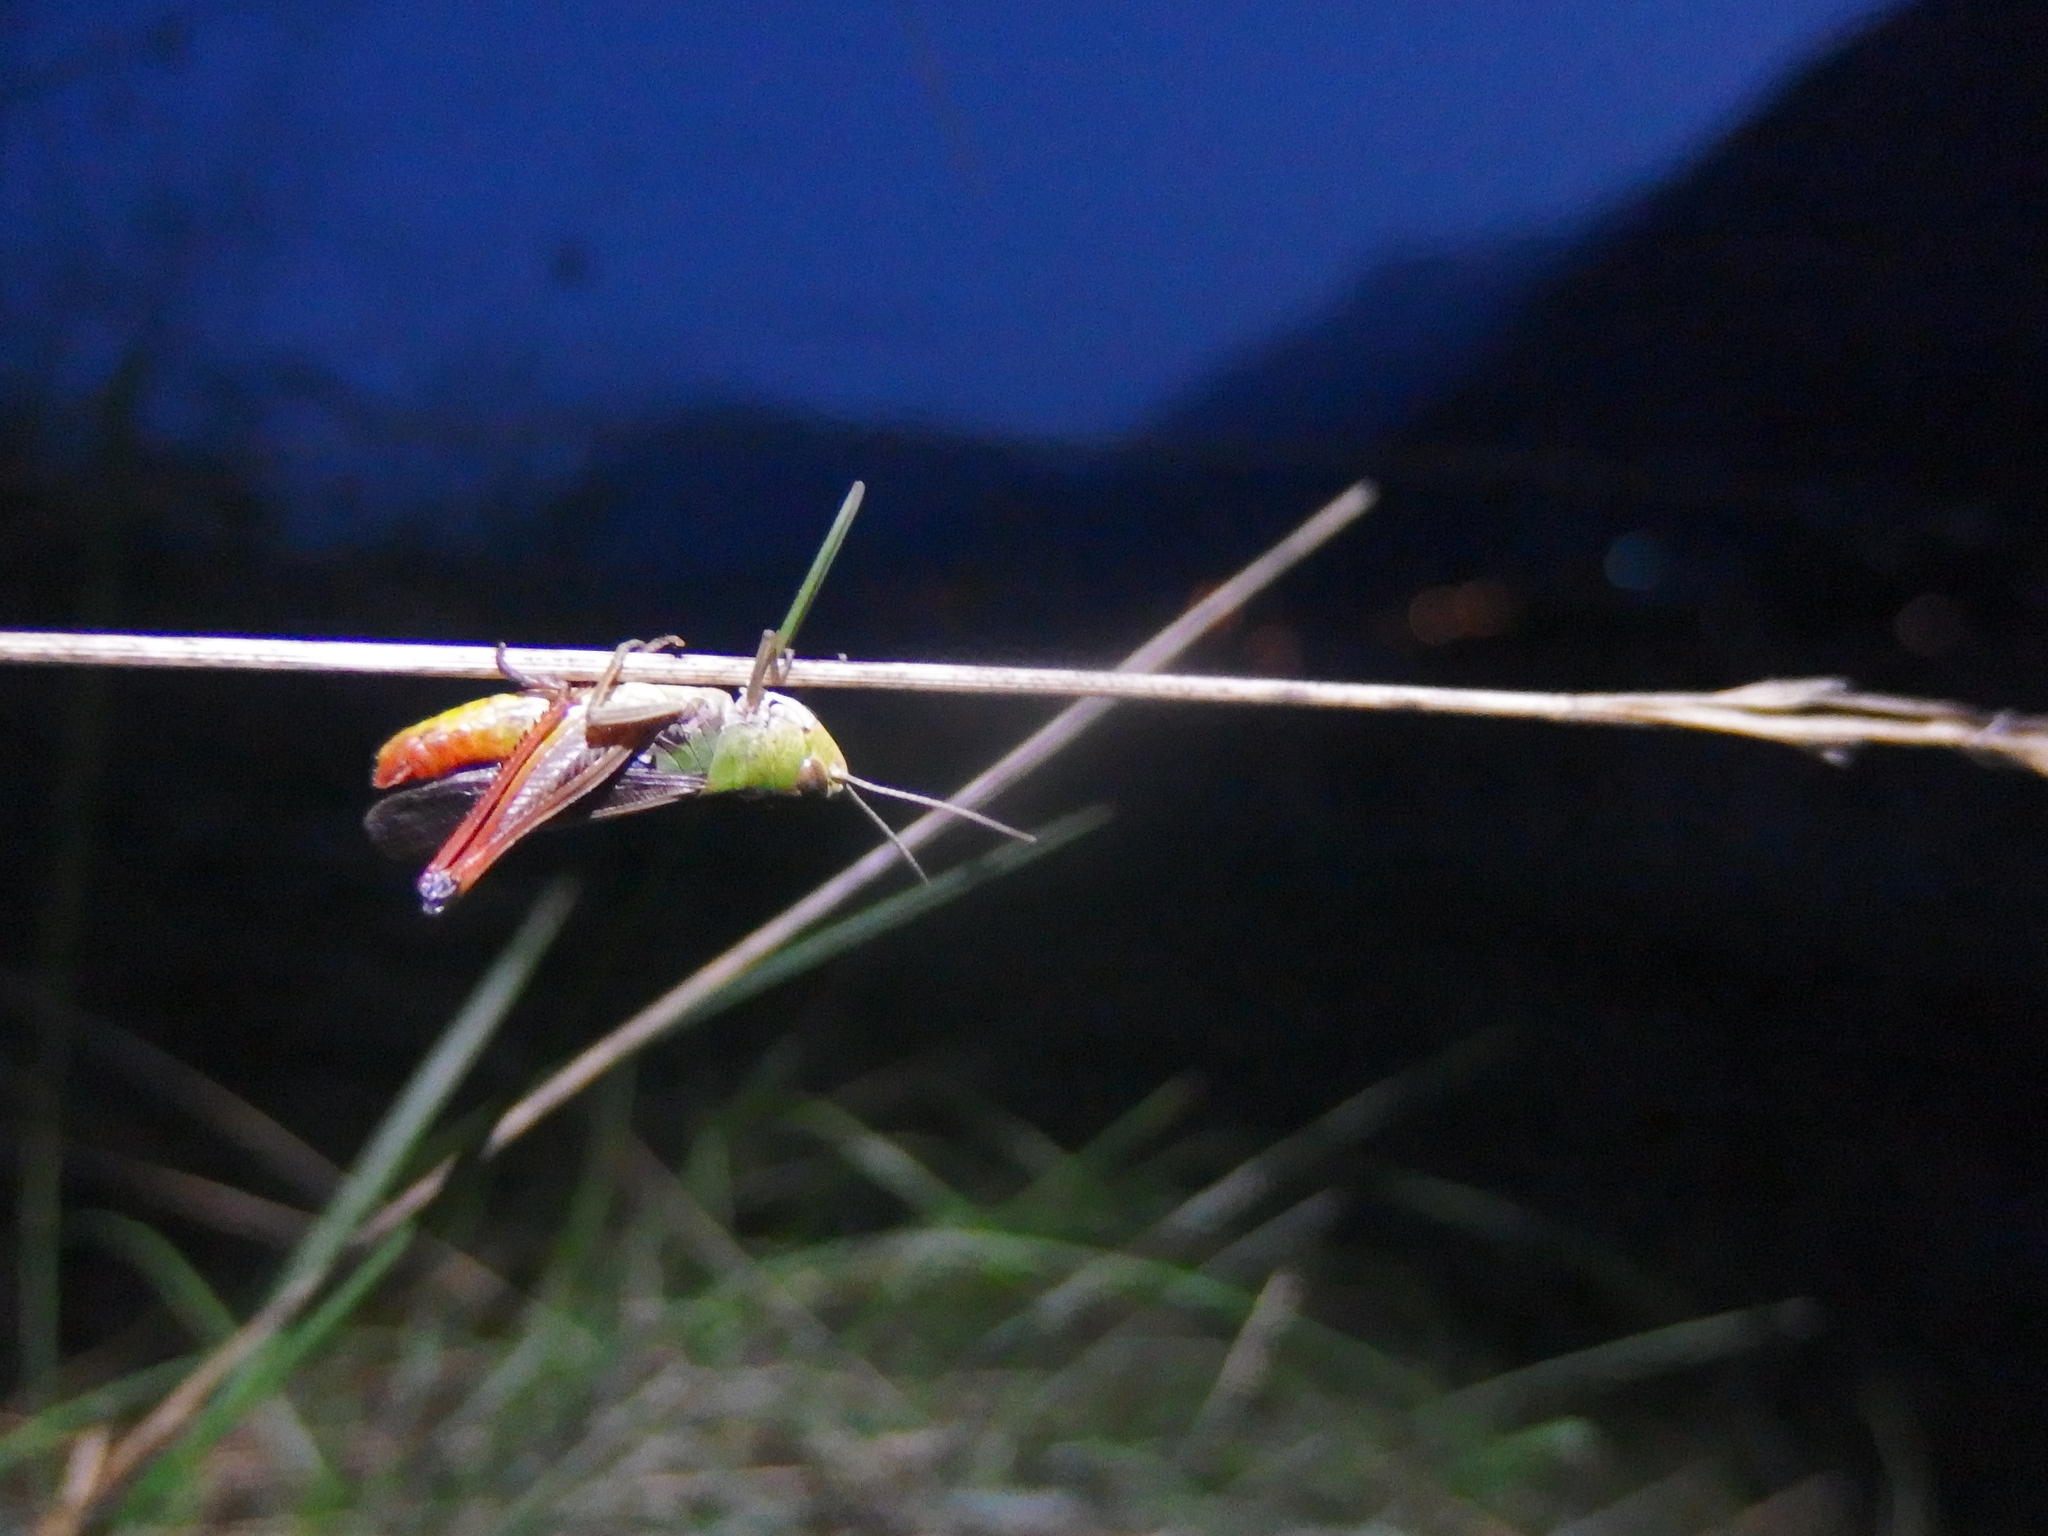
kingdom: Animalia
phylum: Arthropoda
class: Insecta
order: Orthoptera
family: Acrididae
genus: Stenobothrus
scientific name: Stenobothrus lineatus
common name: Stripe-winged grasshopper
